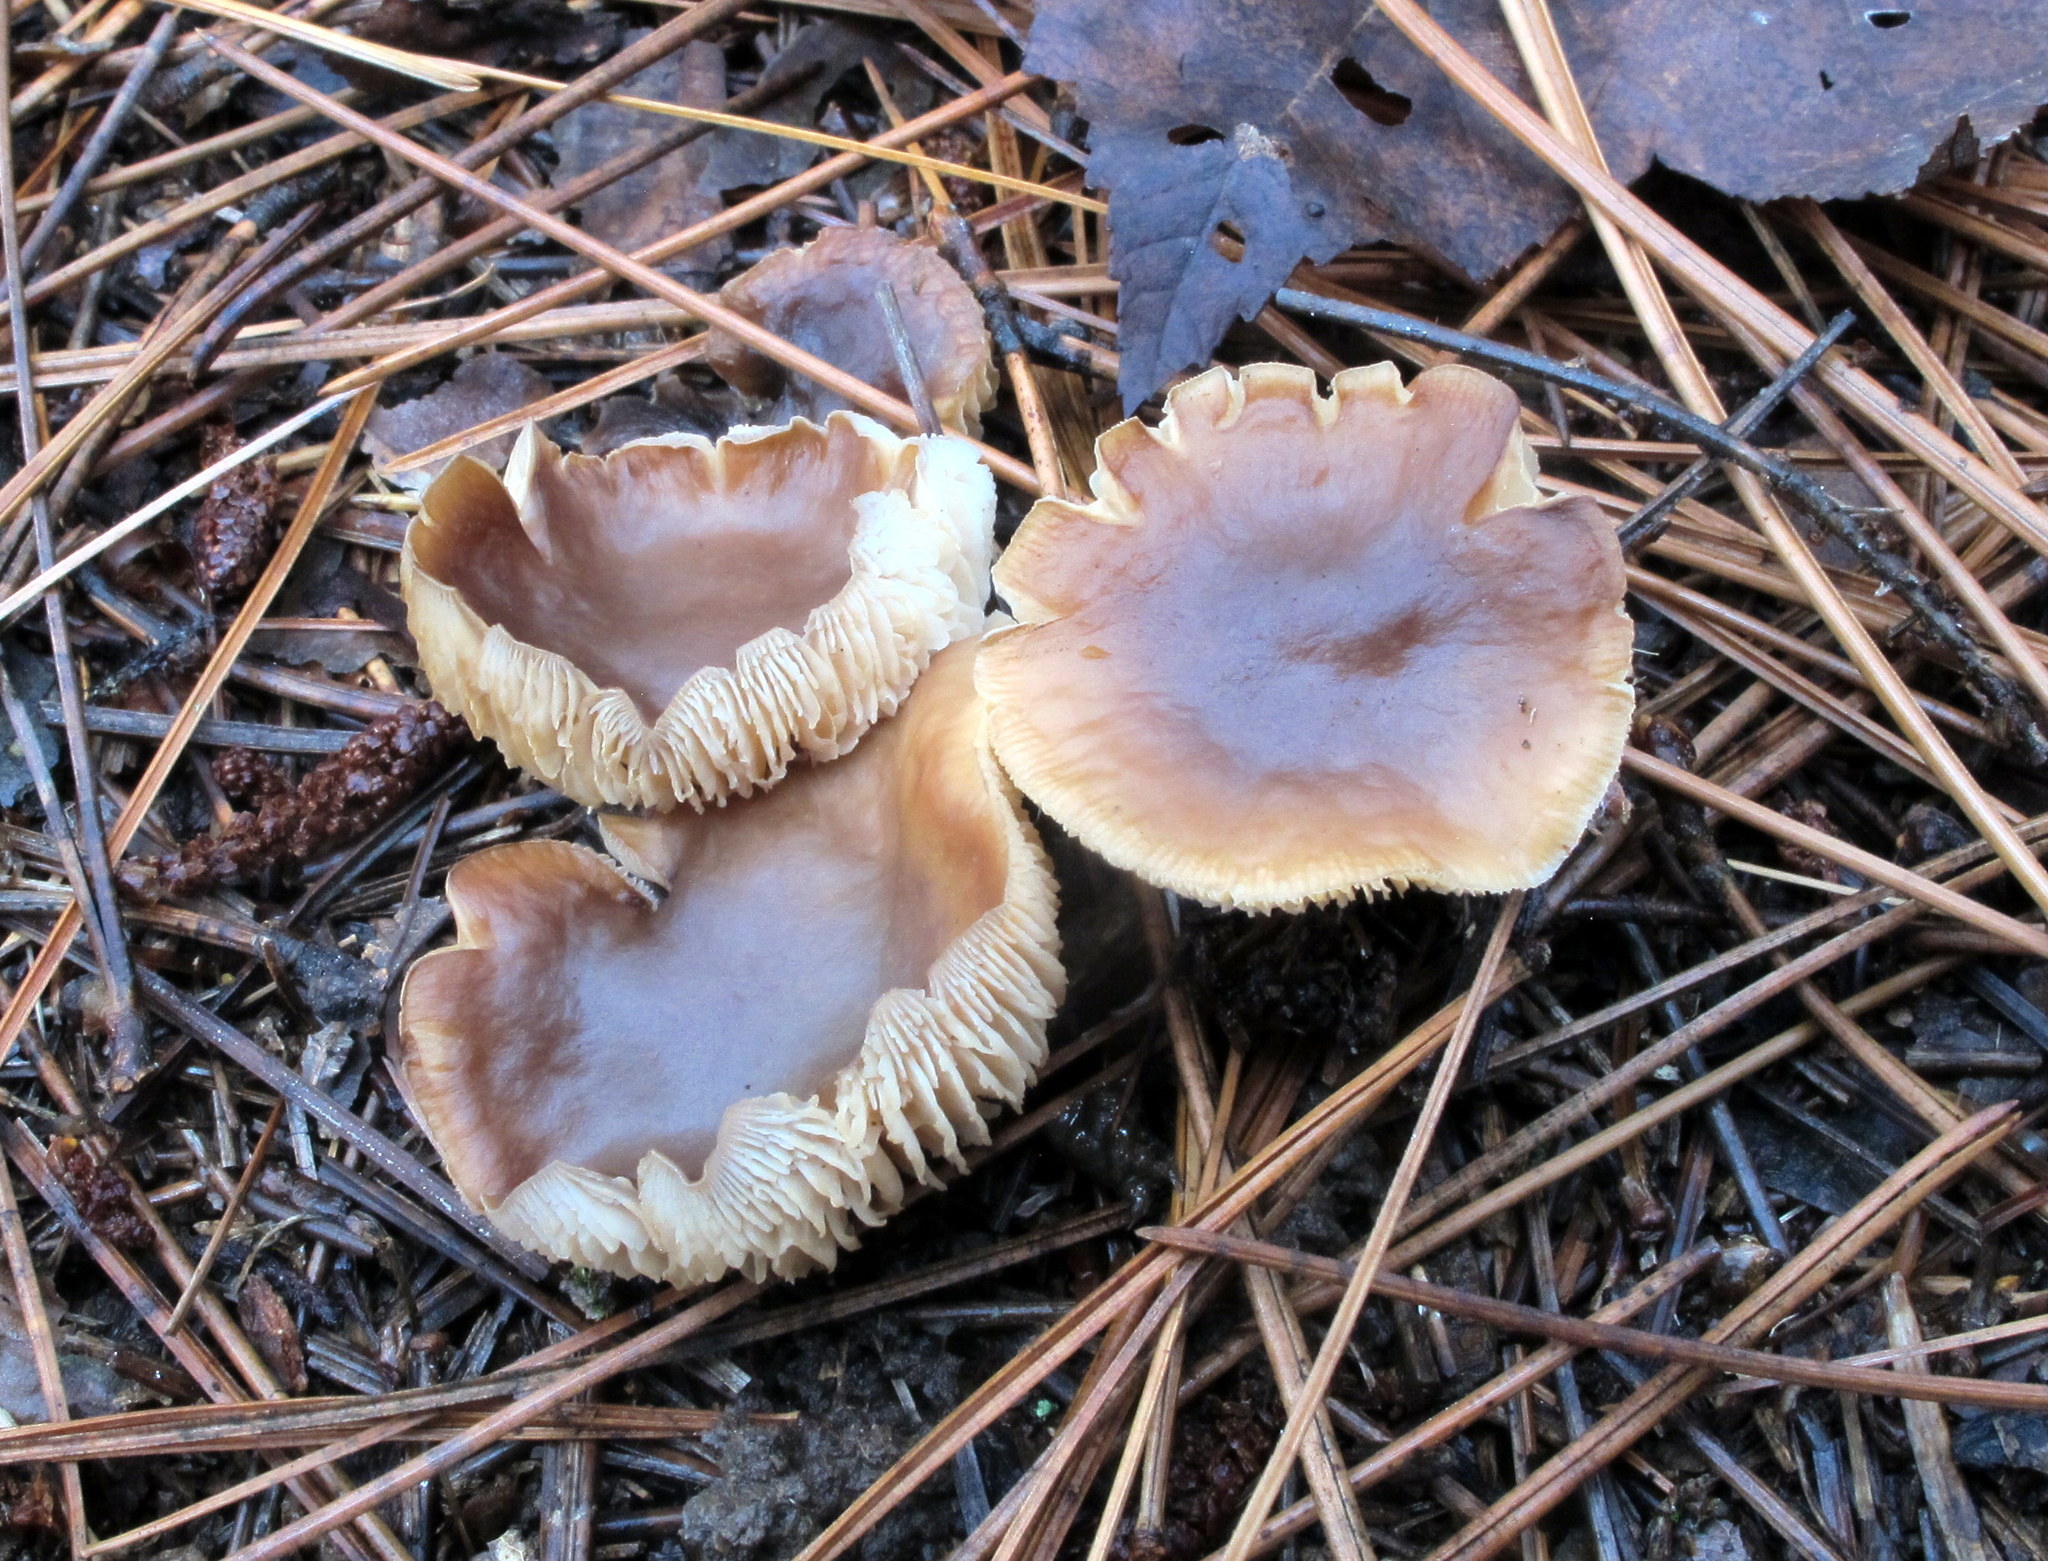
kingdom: Fungi
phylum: Basidiomycota
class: Agaricomycetes
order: Agaricales
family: Omphalotaceae
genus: Rhodocollybia
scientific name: Rhodocollybia butyracea
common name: Butter cap
